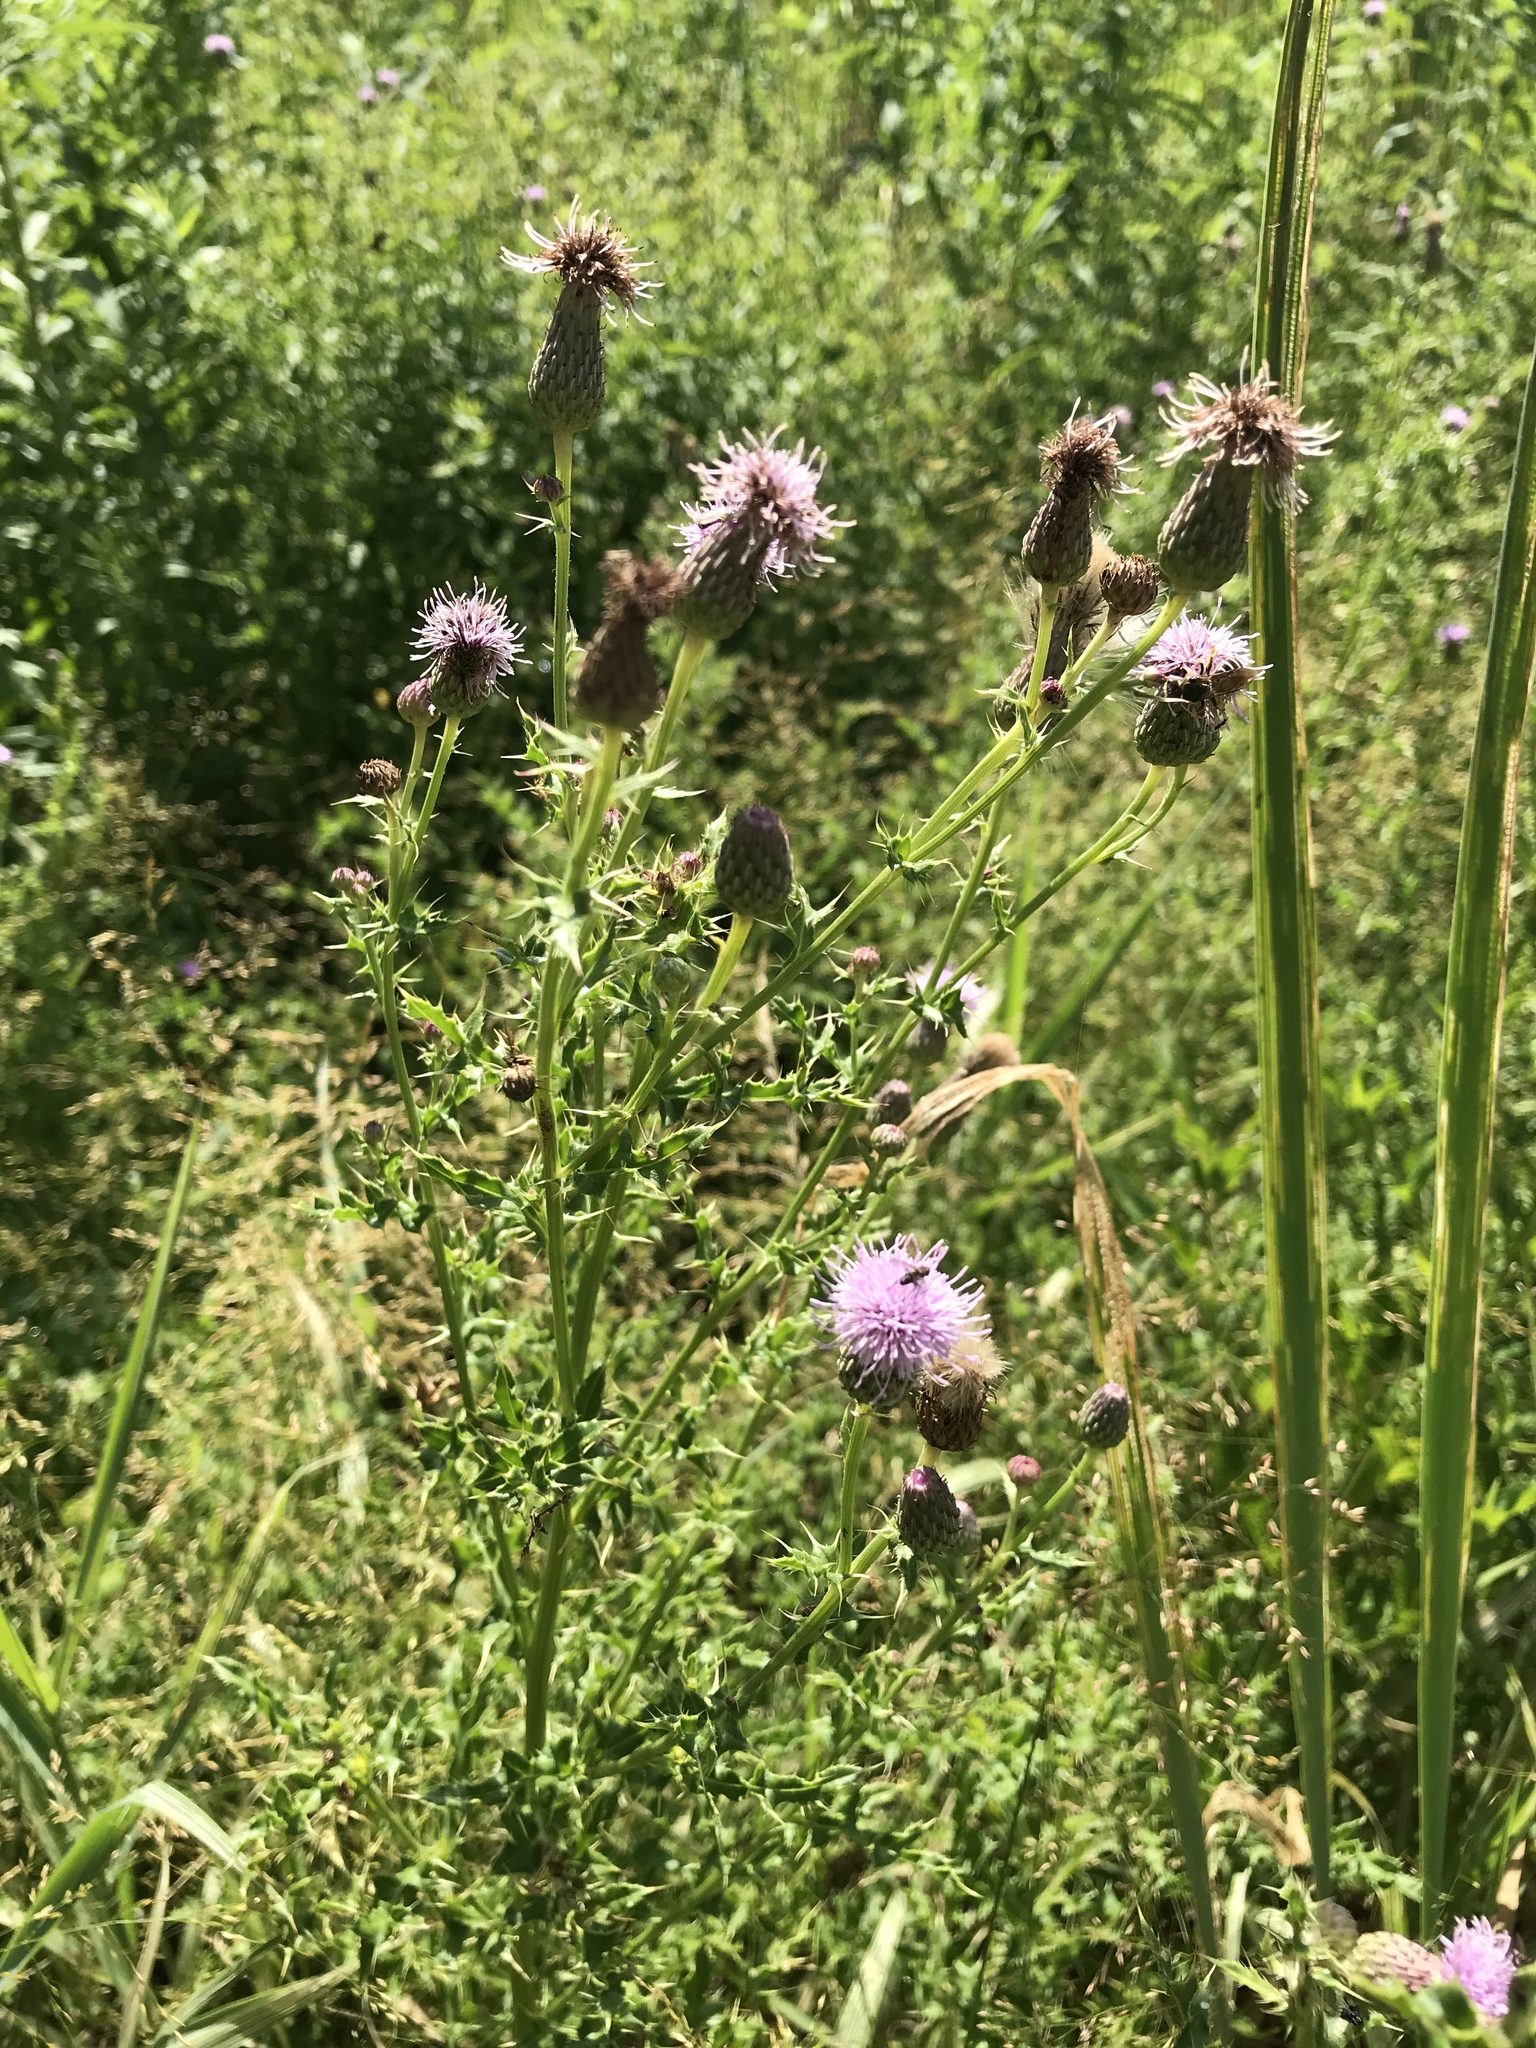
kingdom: Plantae
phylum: Tracheophyta
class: Magnoliopsida
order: Asterales
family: Asteraceae
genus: Cirsium
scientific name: Cirsium arvense
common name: Creeping thistle
